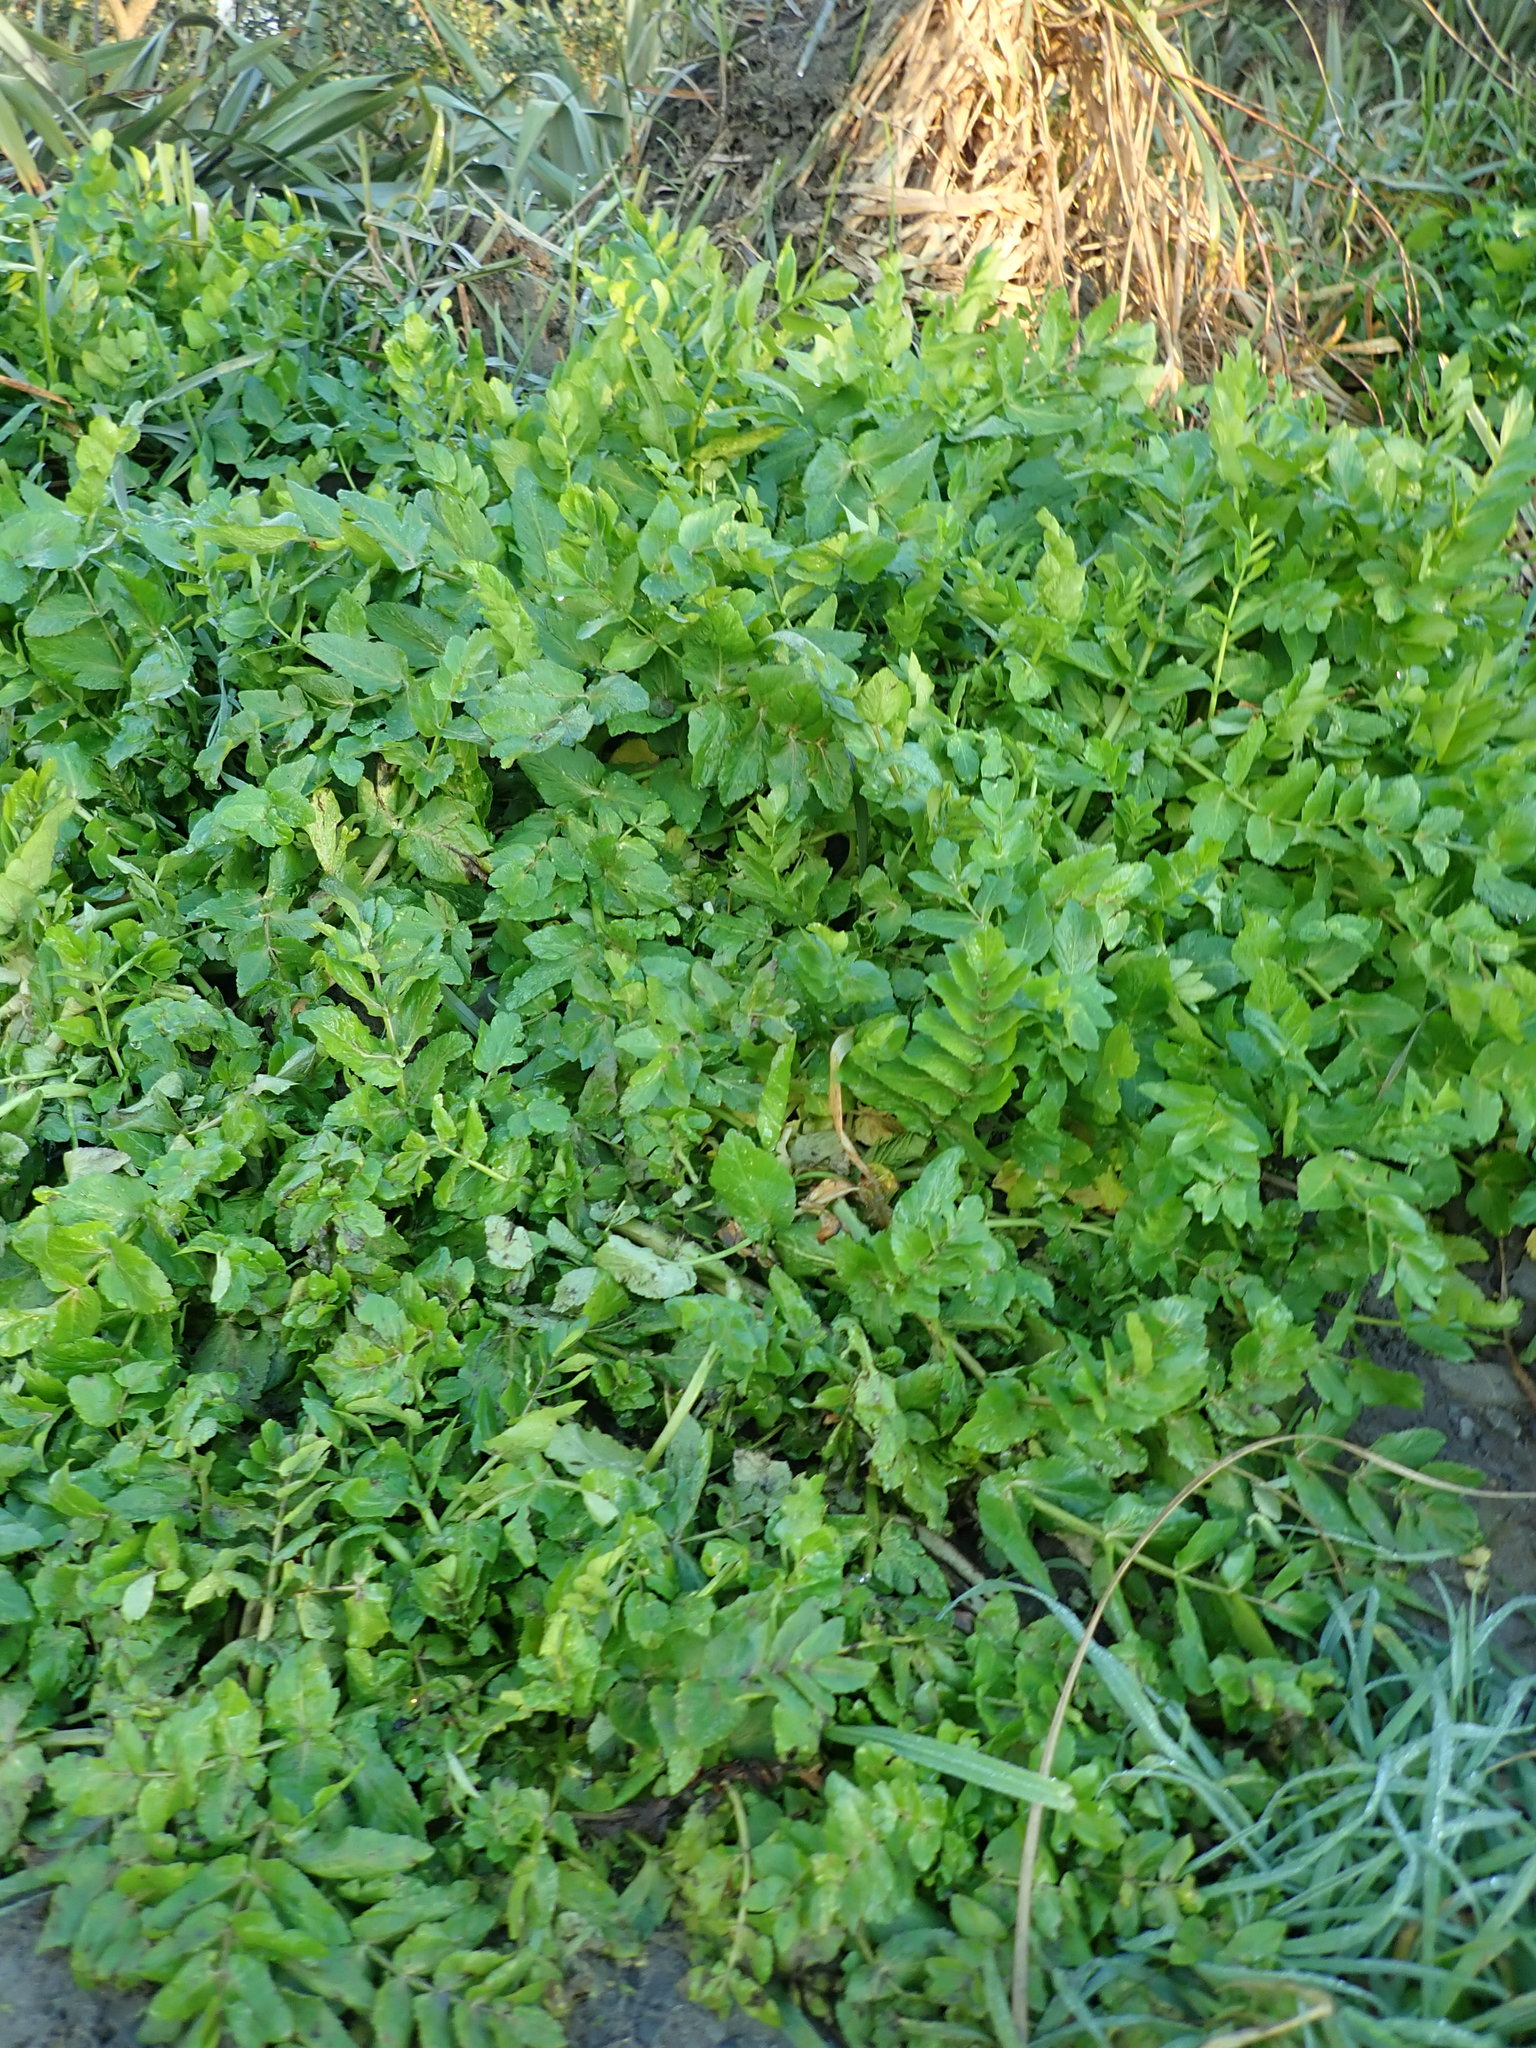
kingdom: Plantae
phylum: Tracheophyta
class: Magnoliopsida
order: Apiales
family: Apiaceae
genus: Helosciadium
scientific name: Helosciadium nodiflorum
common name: Fool's-watercress
